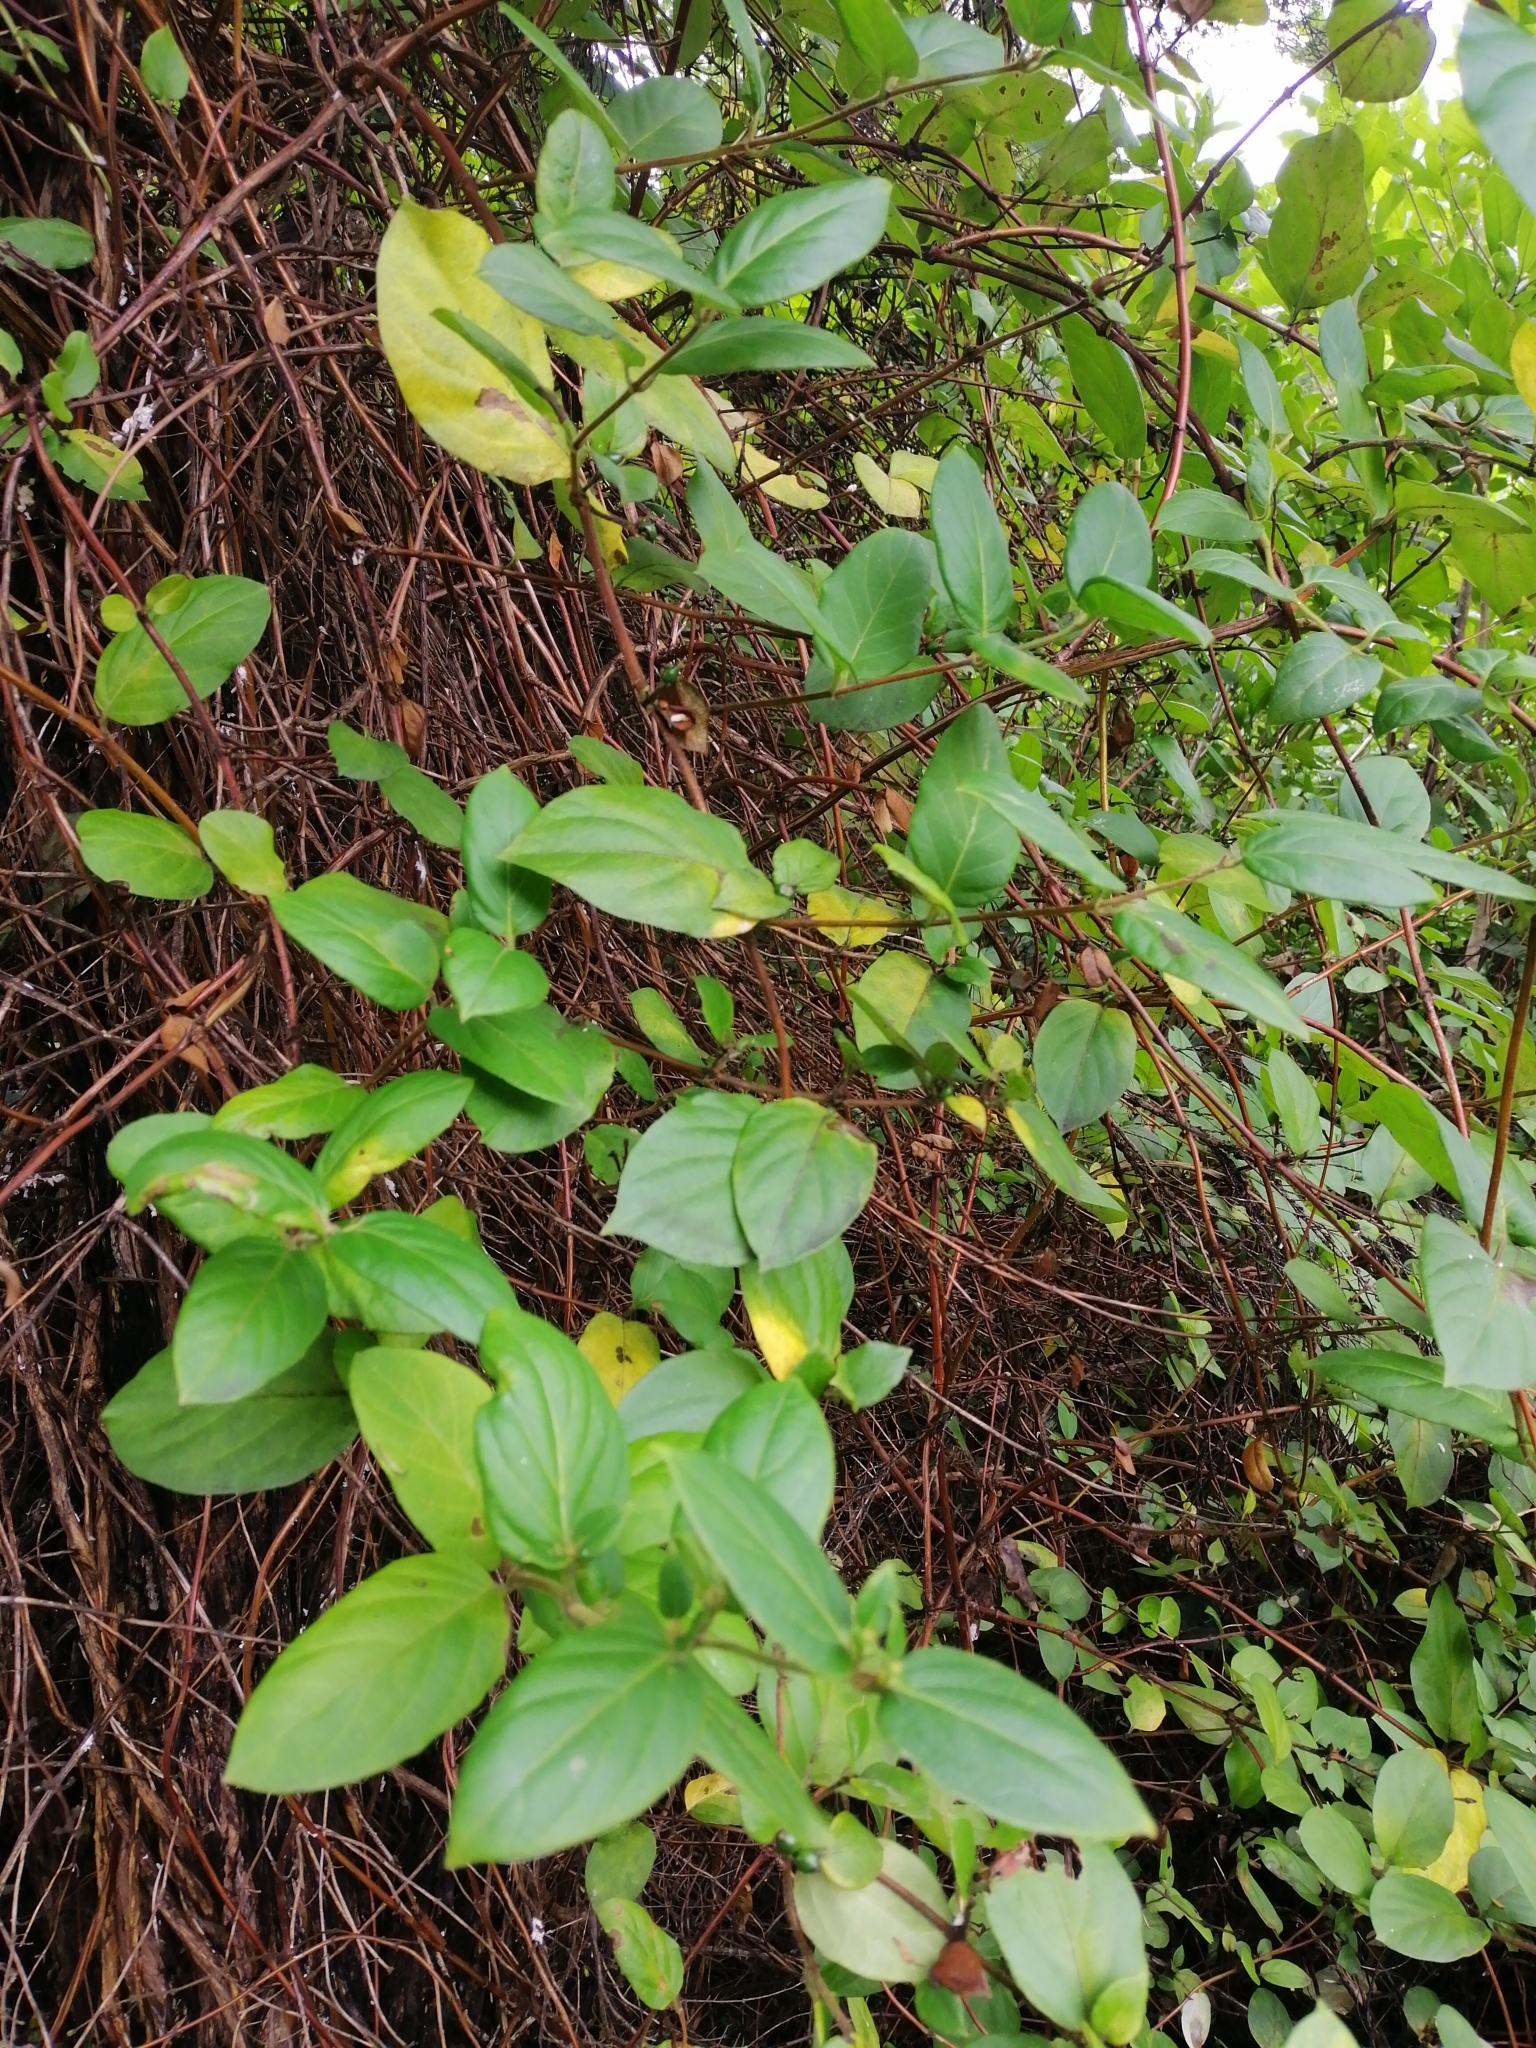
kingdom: Plantae
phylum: Tracheophyta
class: Magnoliopsida
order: Dipsacales
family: Caprifoliaceae
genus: Lonicera
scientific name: Lonicera japonica
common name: Japanese honeysuckle
